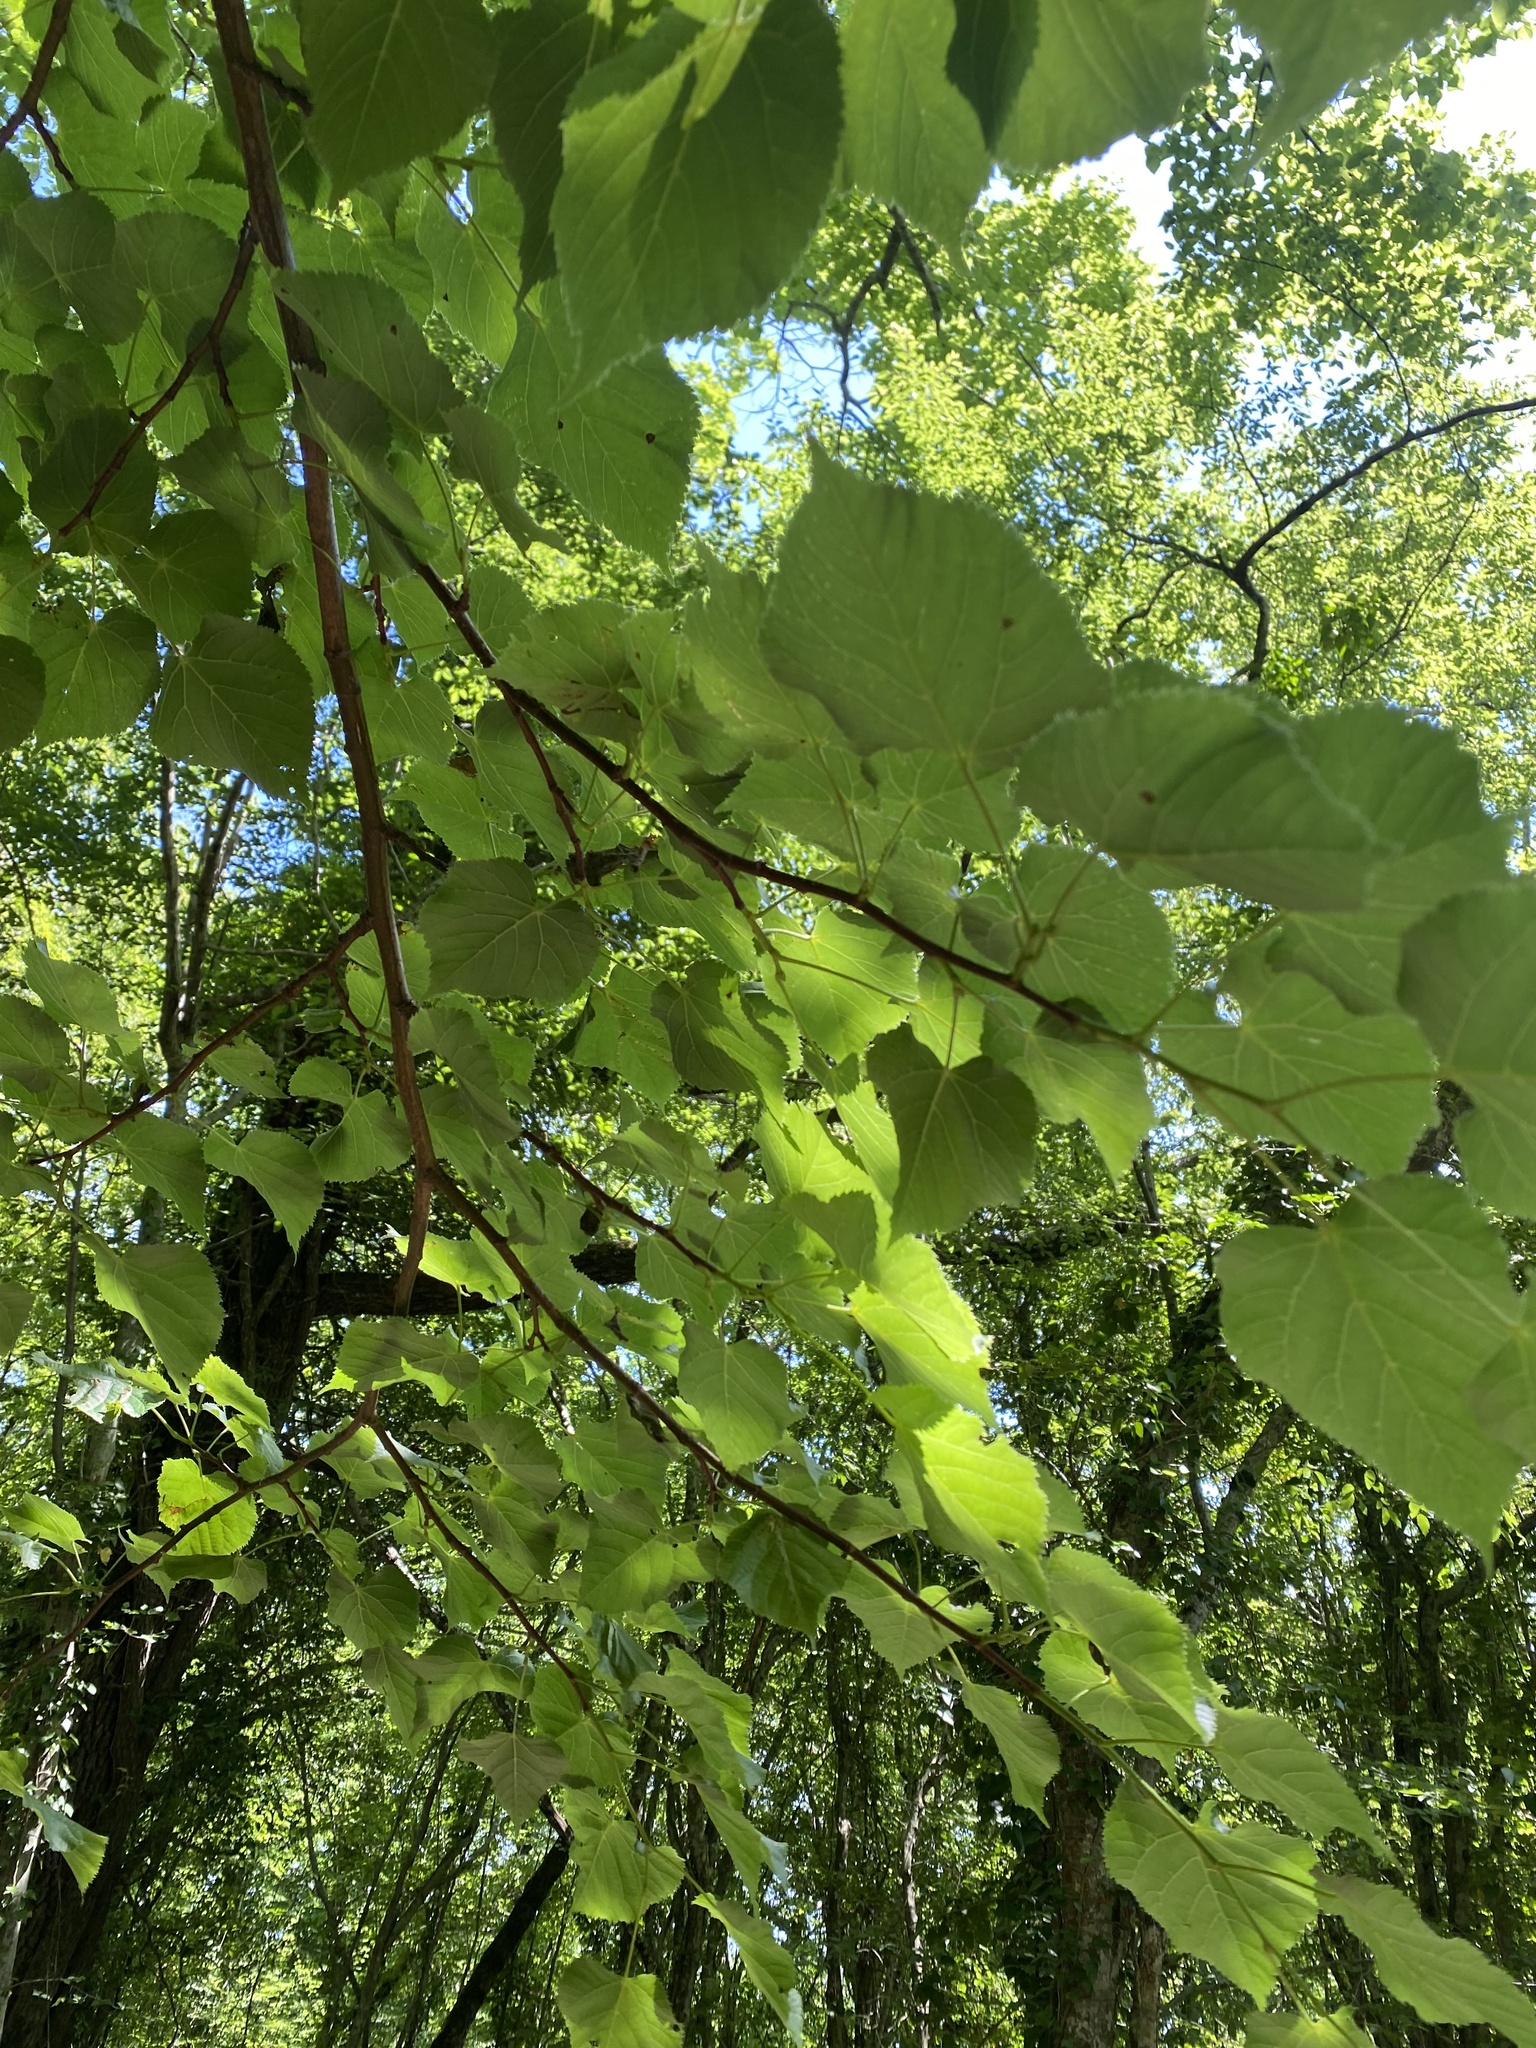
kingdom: Plantae
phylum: Tracheophyta
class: Magnoliopsida
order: Malvales
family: Malvaceae
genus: Tilia
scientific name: Tilia cordata
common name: Small-leaved lime
